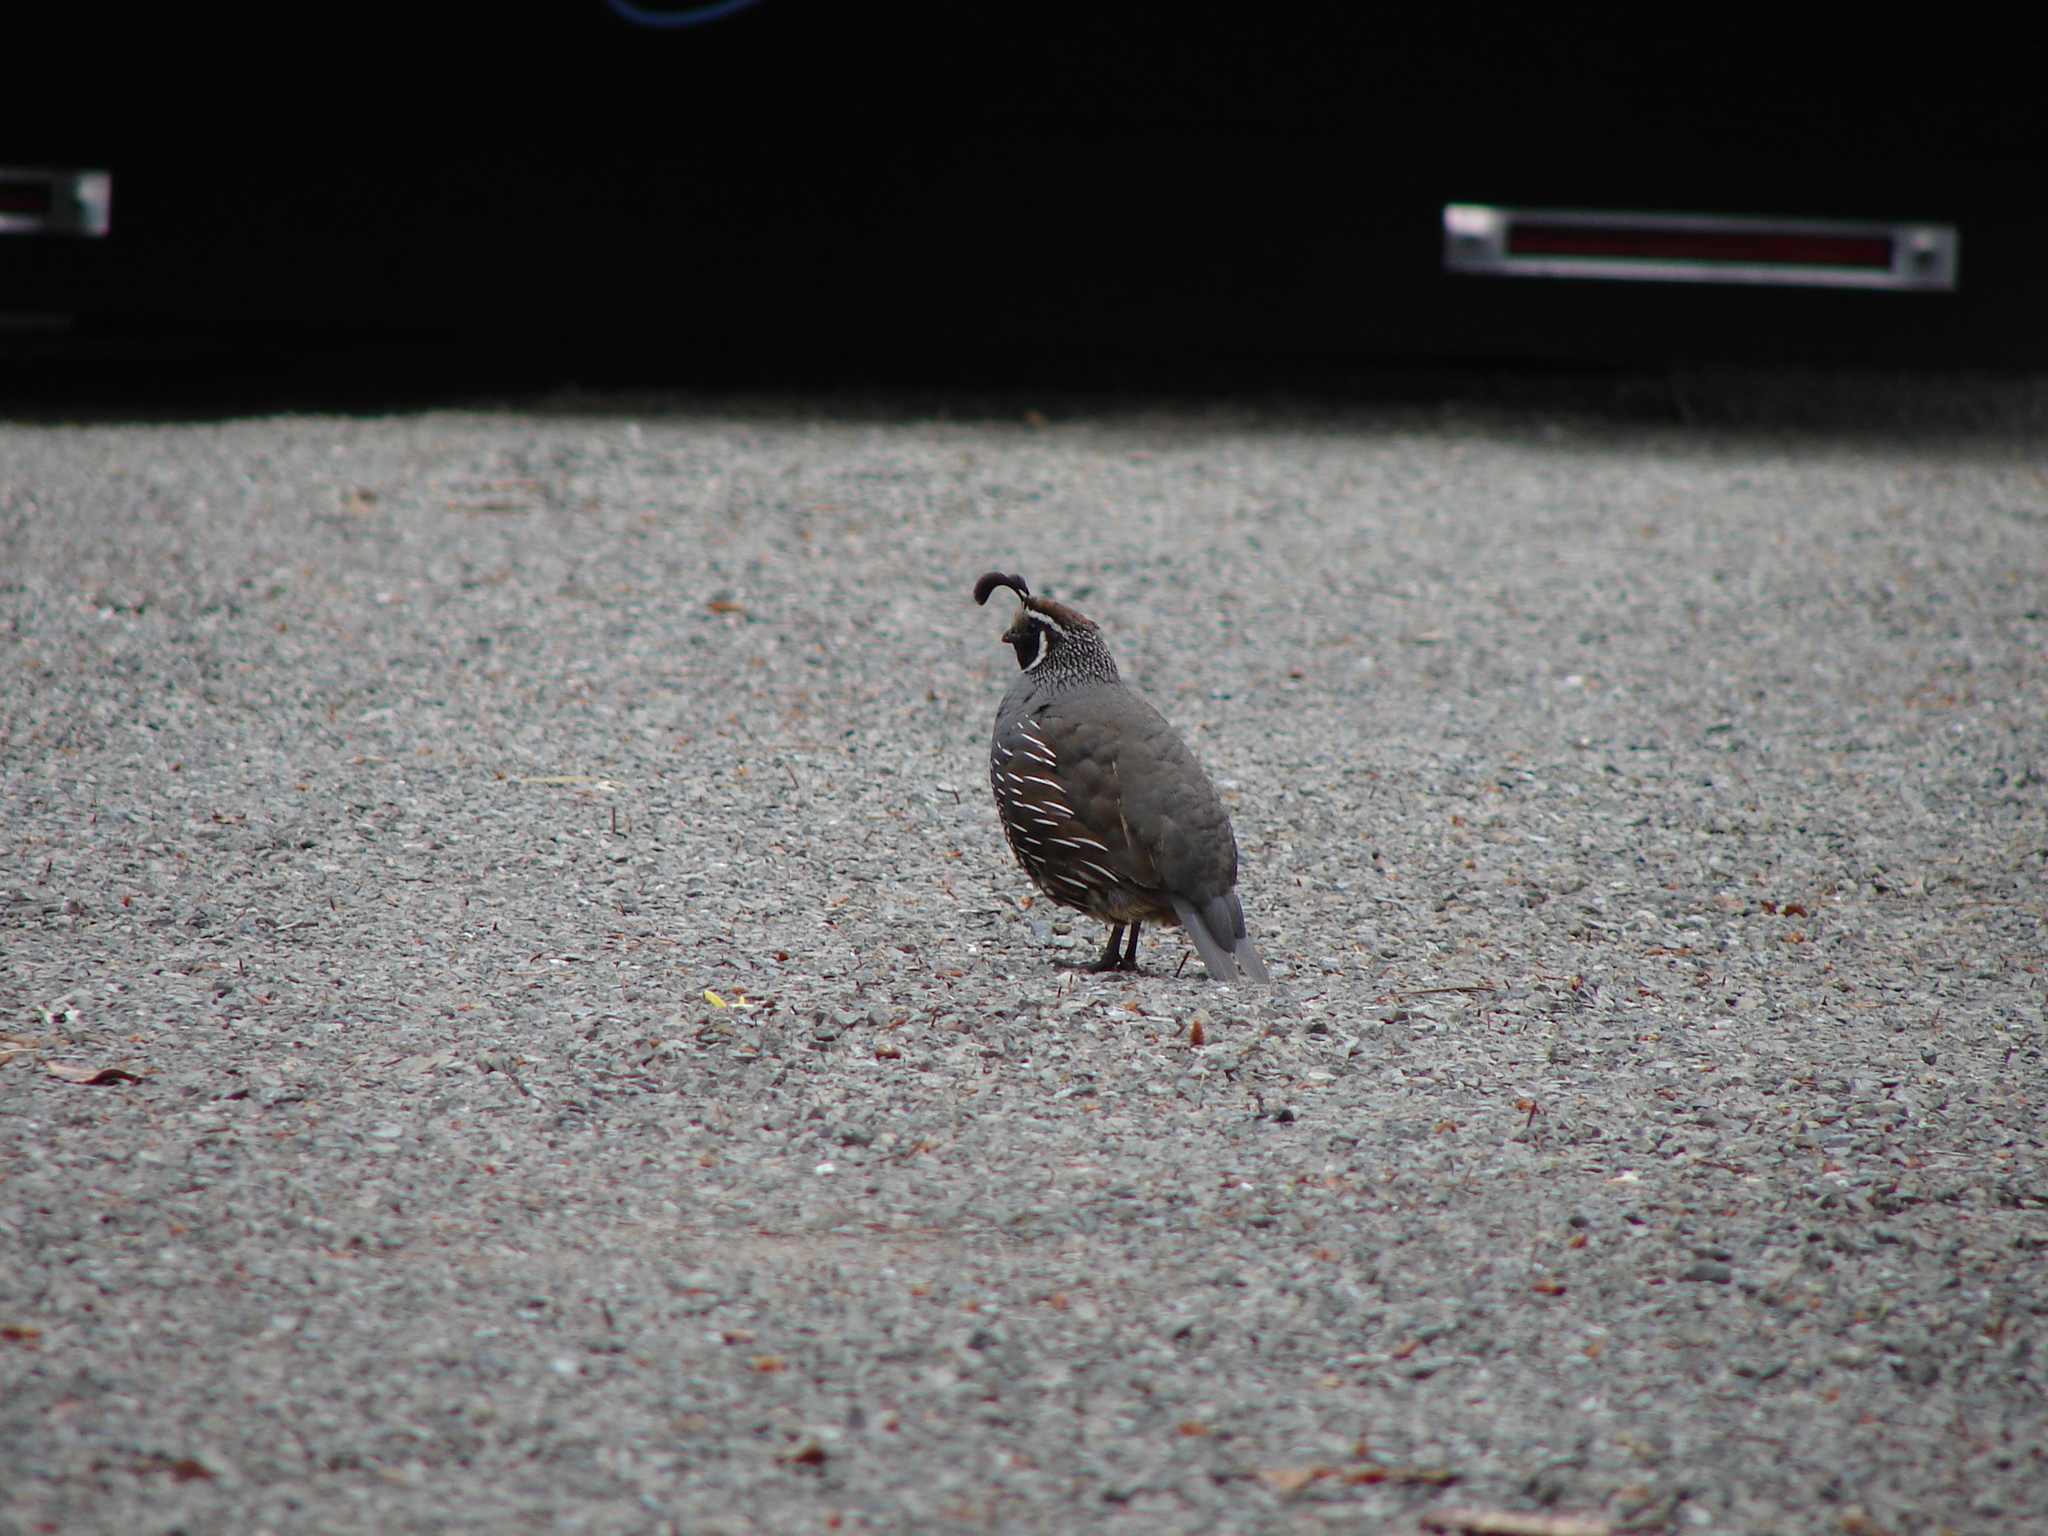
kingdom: Animalia
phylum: Chordata
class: Aves
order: Galliformes
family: Odontophoridae
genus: Callipepla
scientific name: Callipepla californica
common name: California quail
